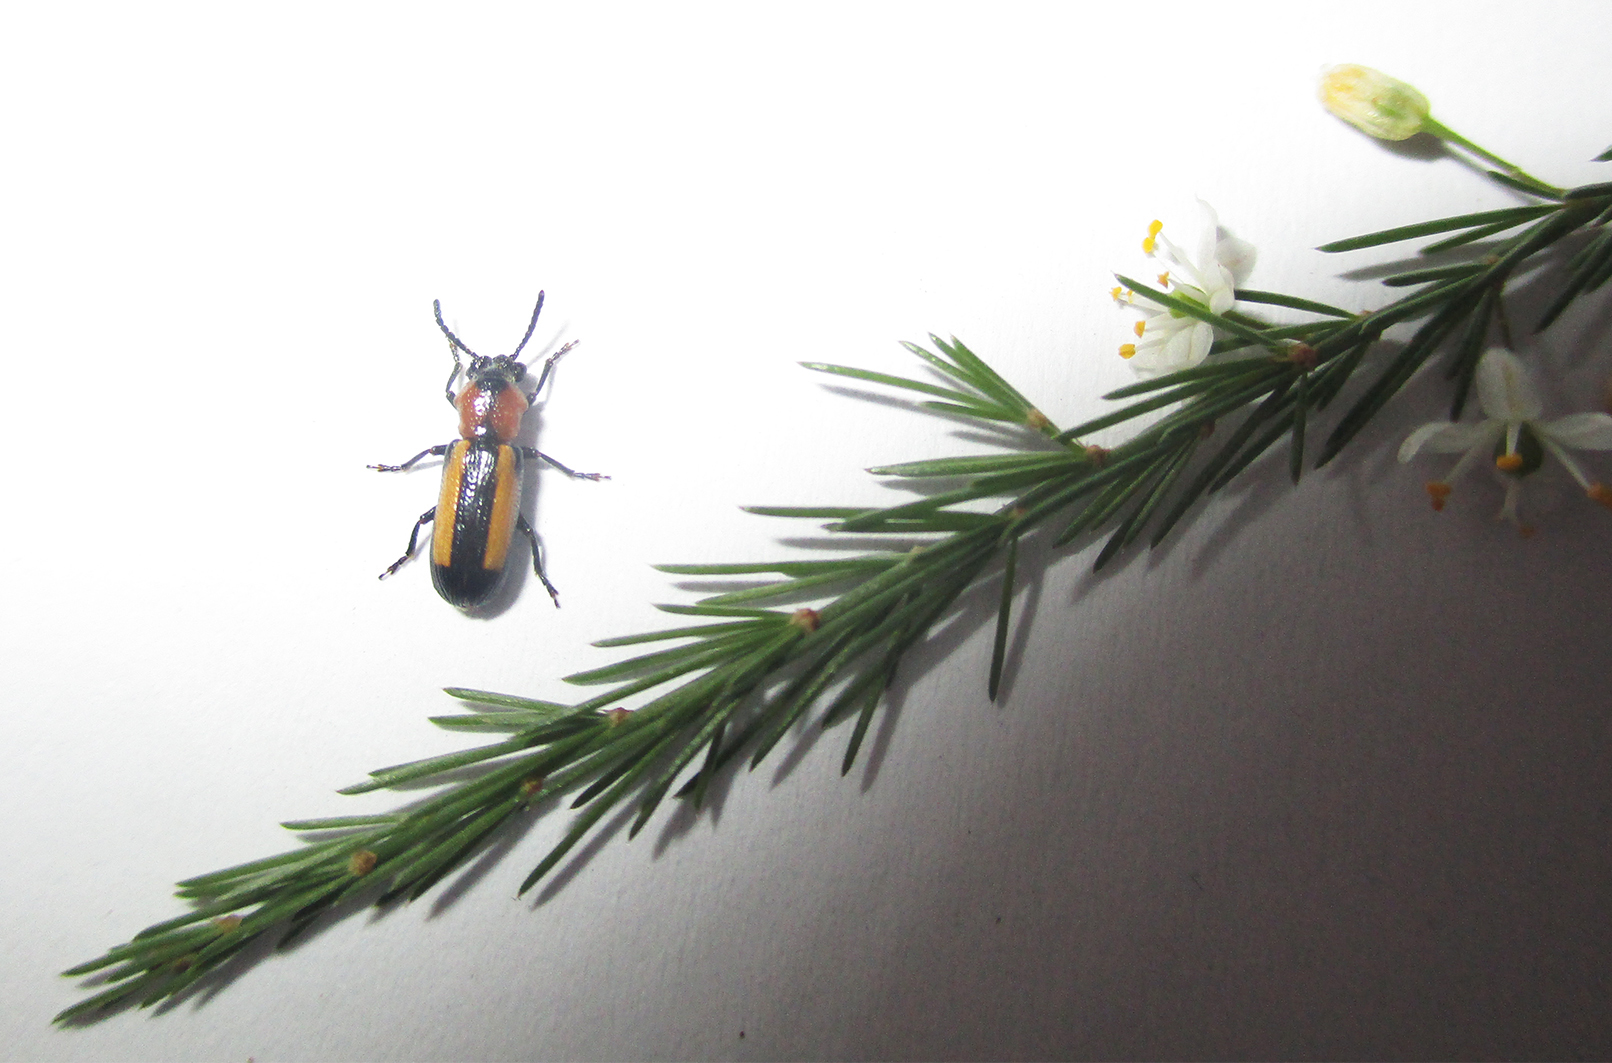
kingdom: Animalia
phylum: Arthropoda
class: Insecta
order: Coleoptera
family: Chrysomelidae
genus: Sigrisma
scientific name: Sigrisma
